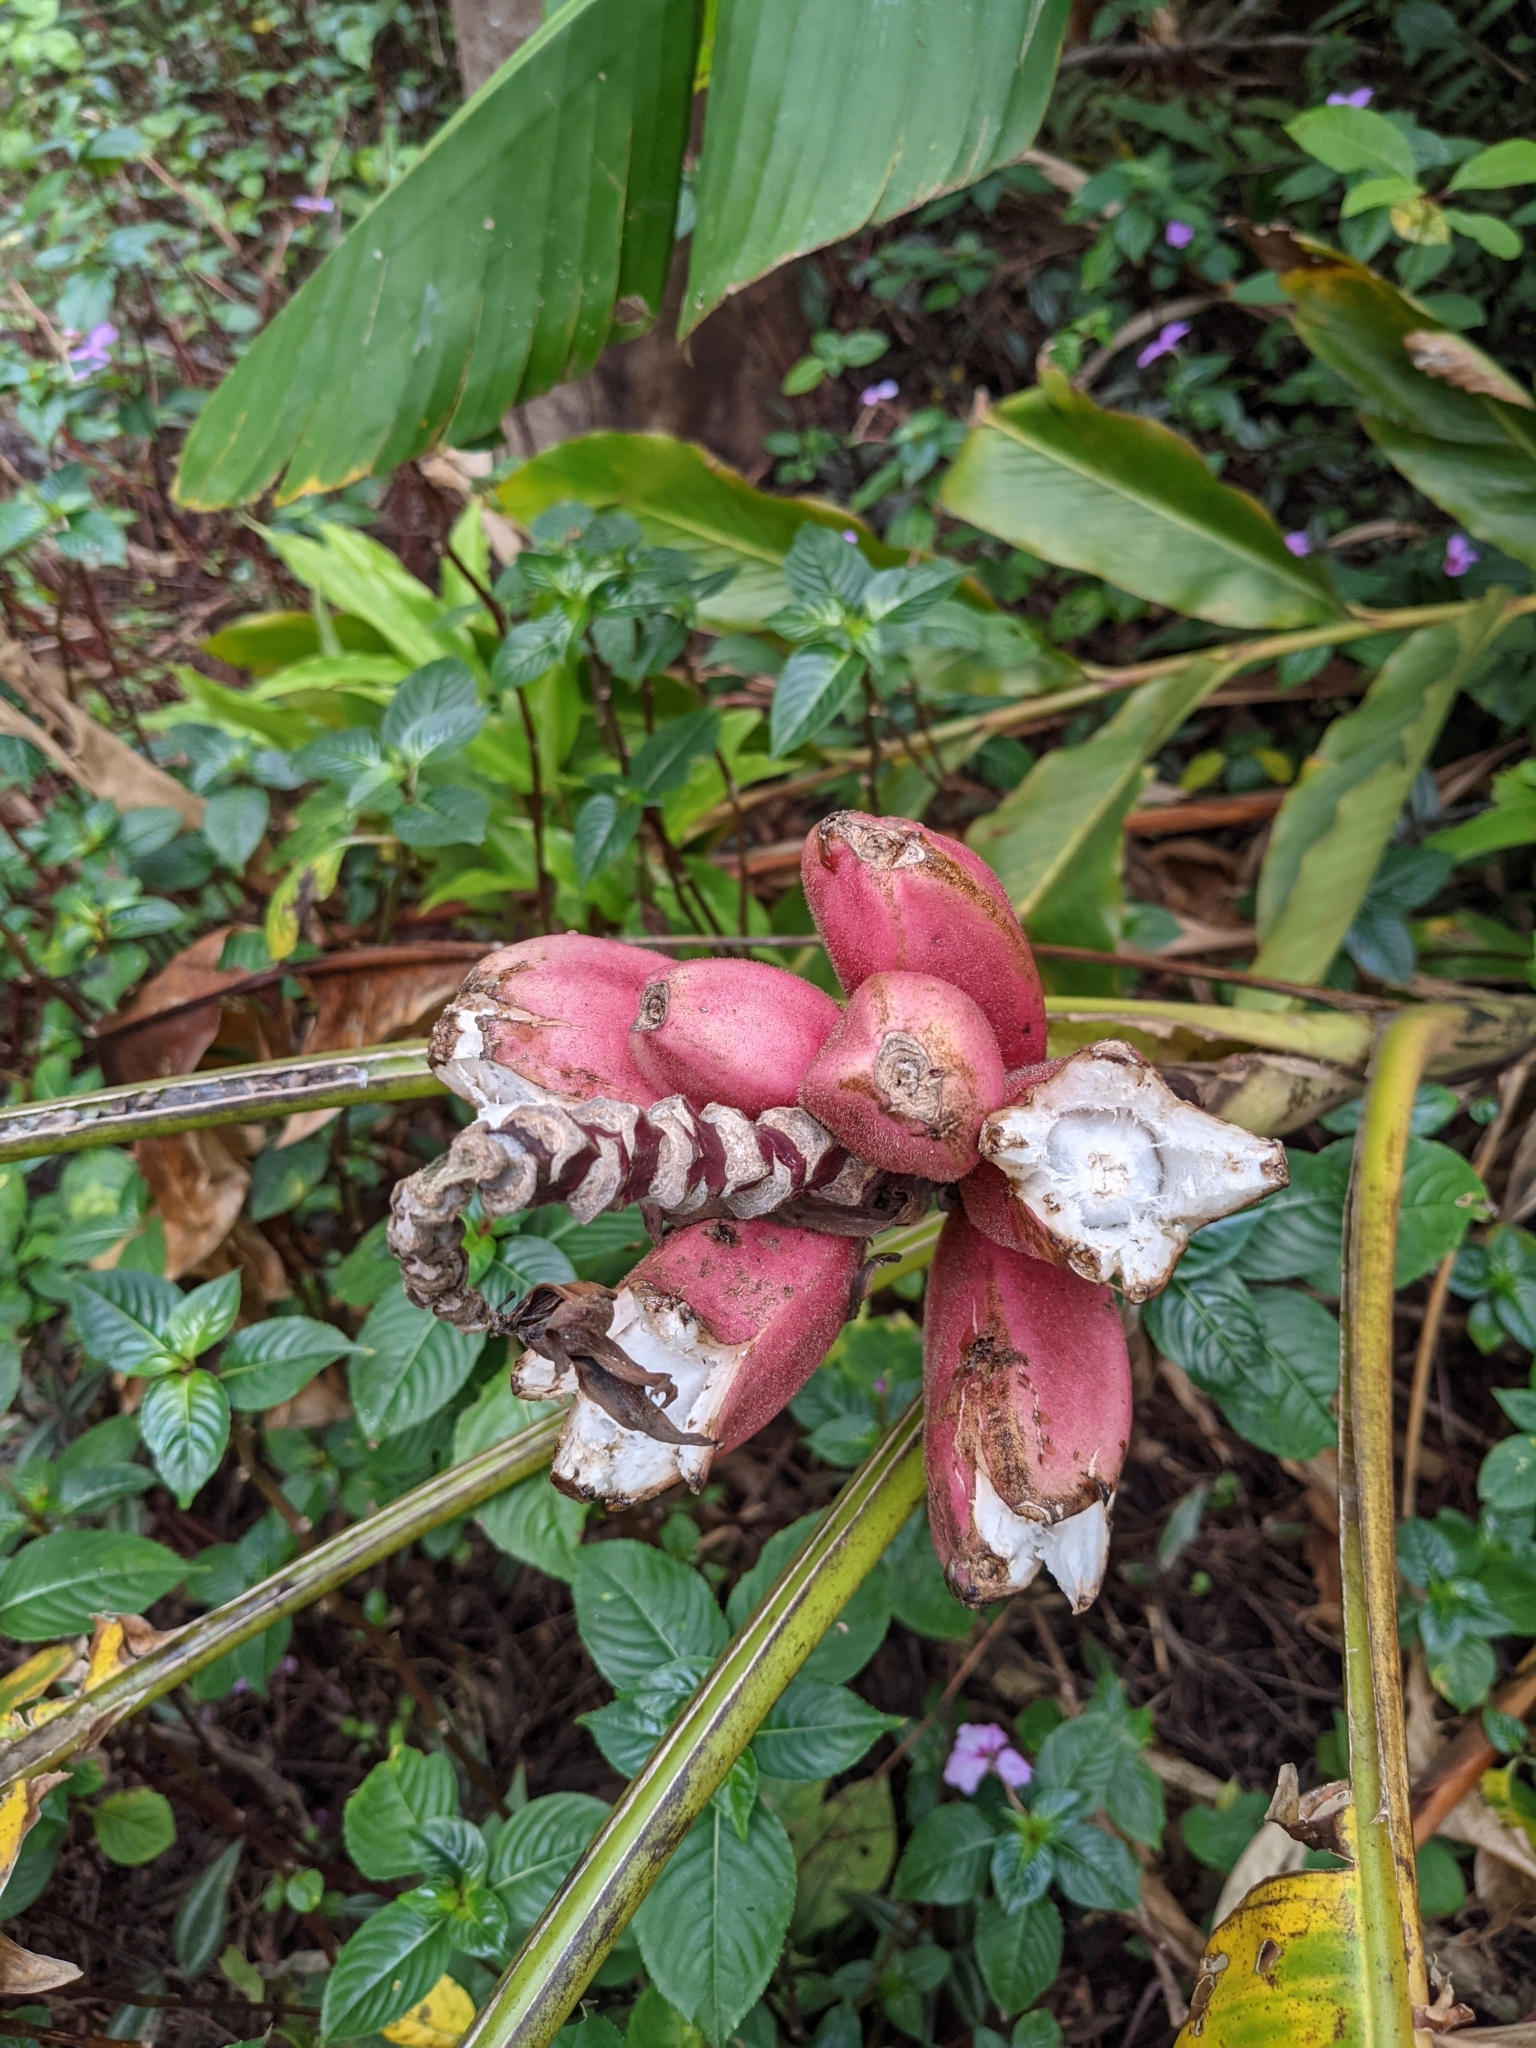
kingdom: Plantae
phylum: Tracheophyta
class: Liliopsida
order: Zingiberales
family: Musaceae
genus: Musa
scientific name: Musa velutina
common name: Pink velvet banana
